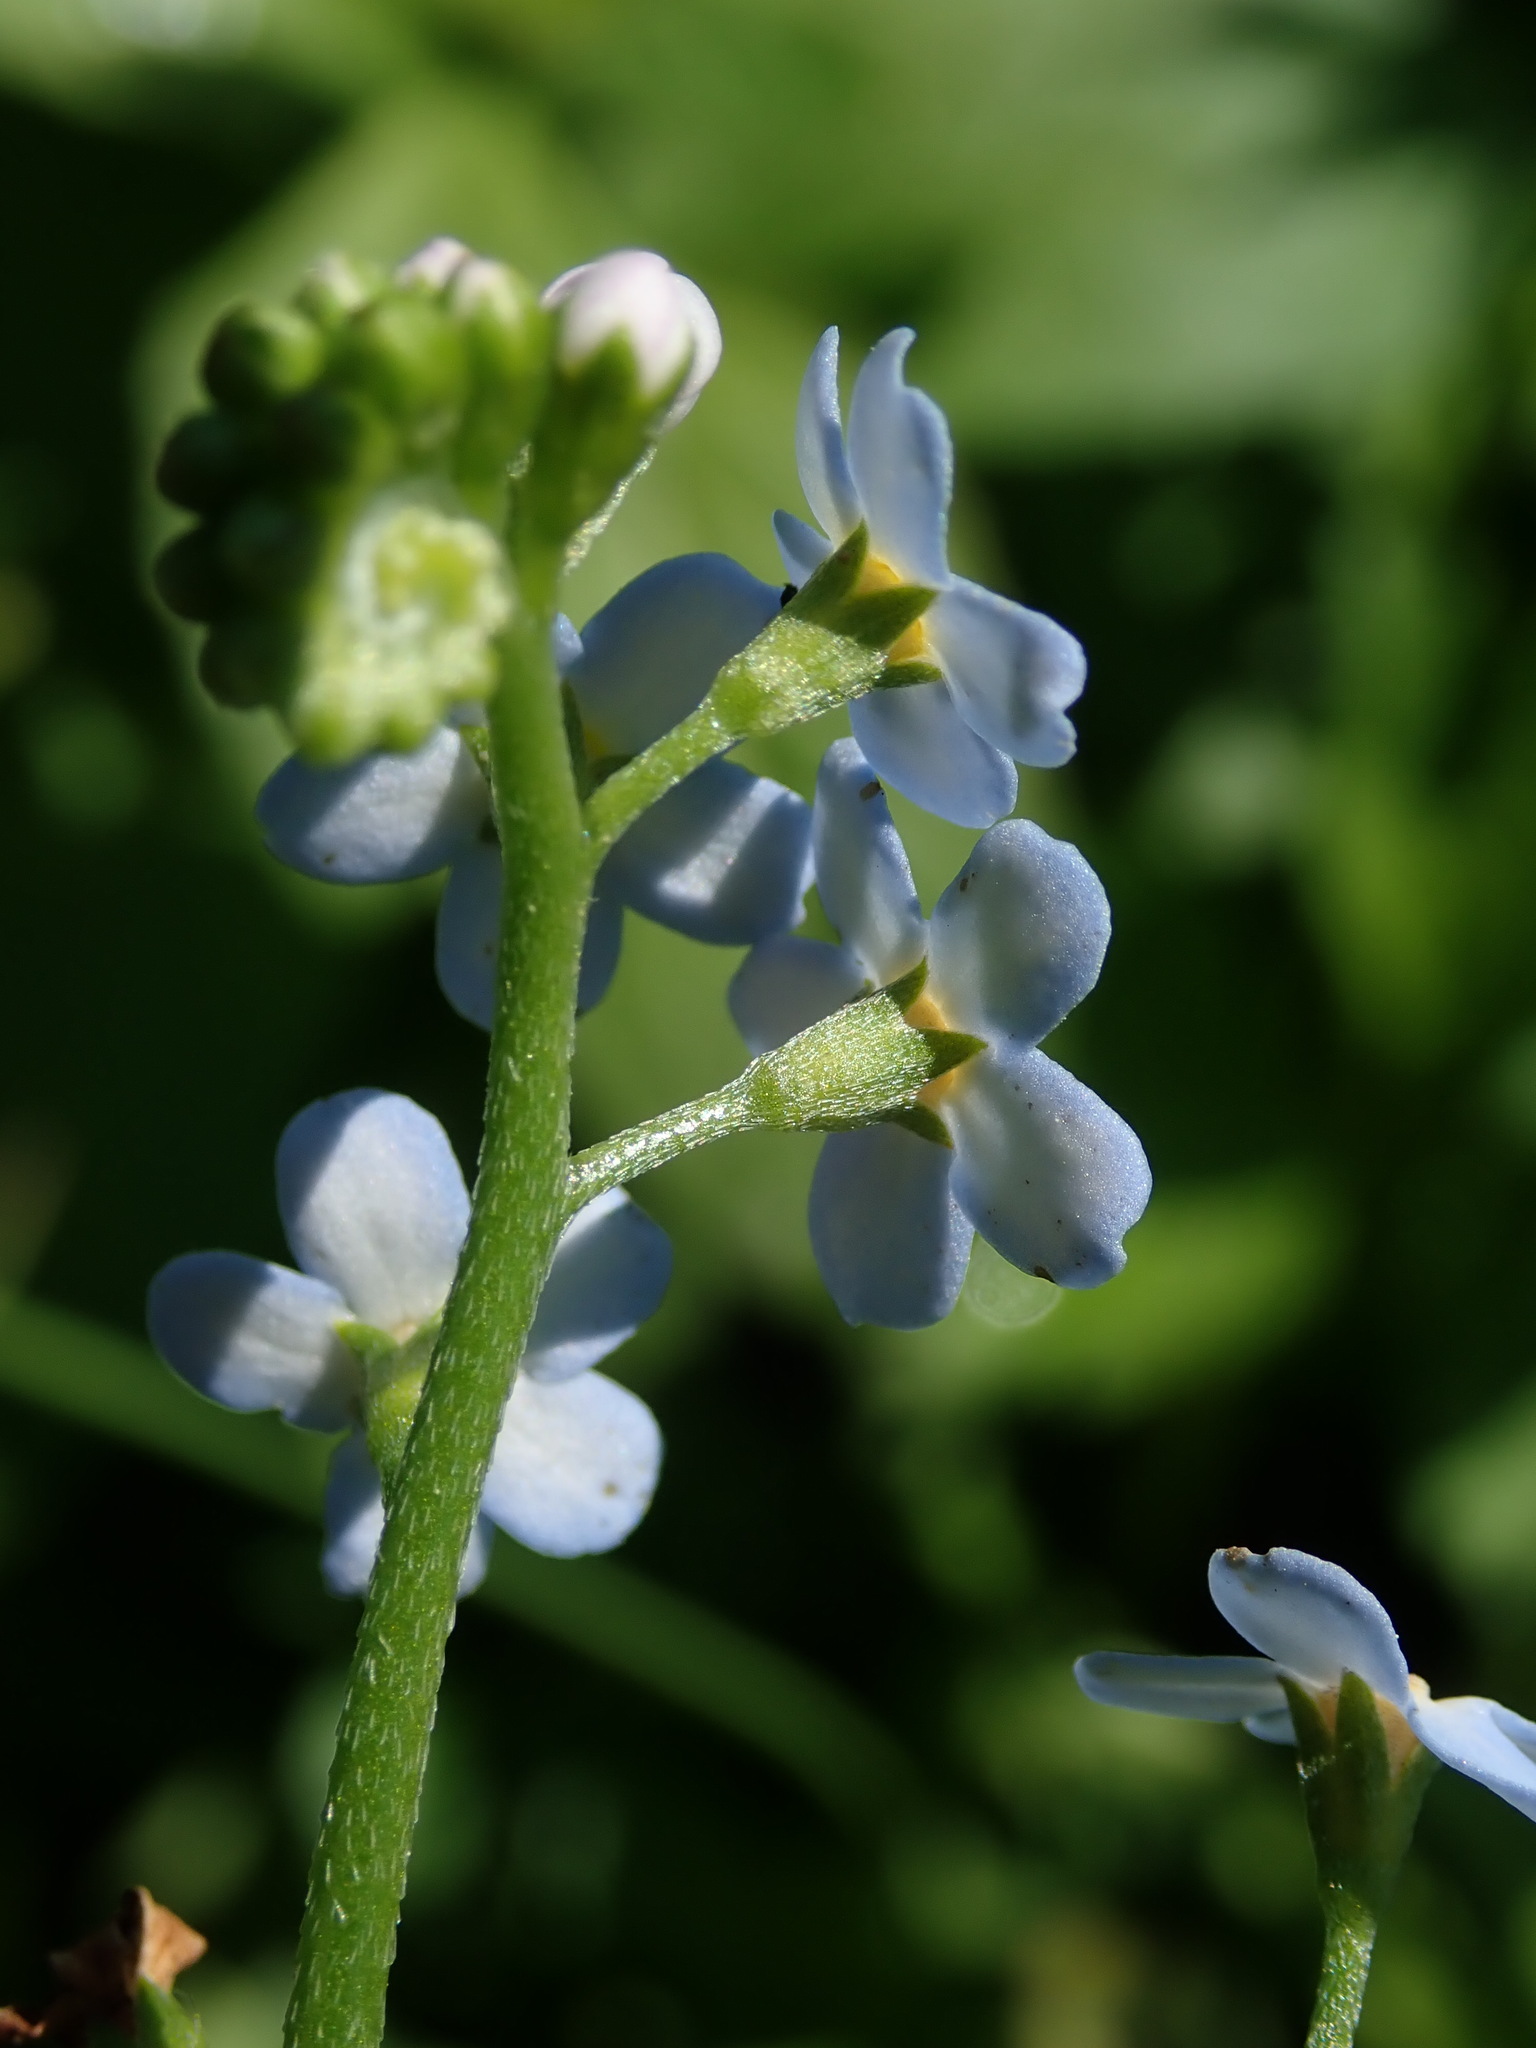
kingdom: Plantae
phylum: Tracheophyta
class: Magnoliopsida
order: Boraginales
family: Boraginaceae
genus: Myosotis
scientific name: Myosotis scorpioides
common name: Water forget-me-not
